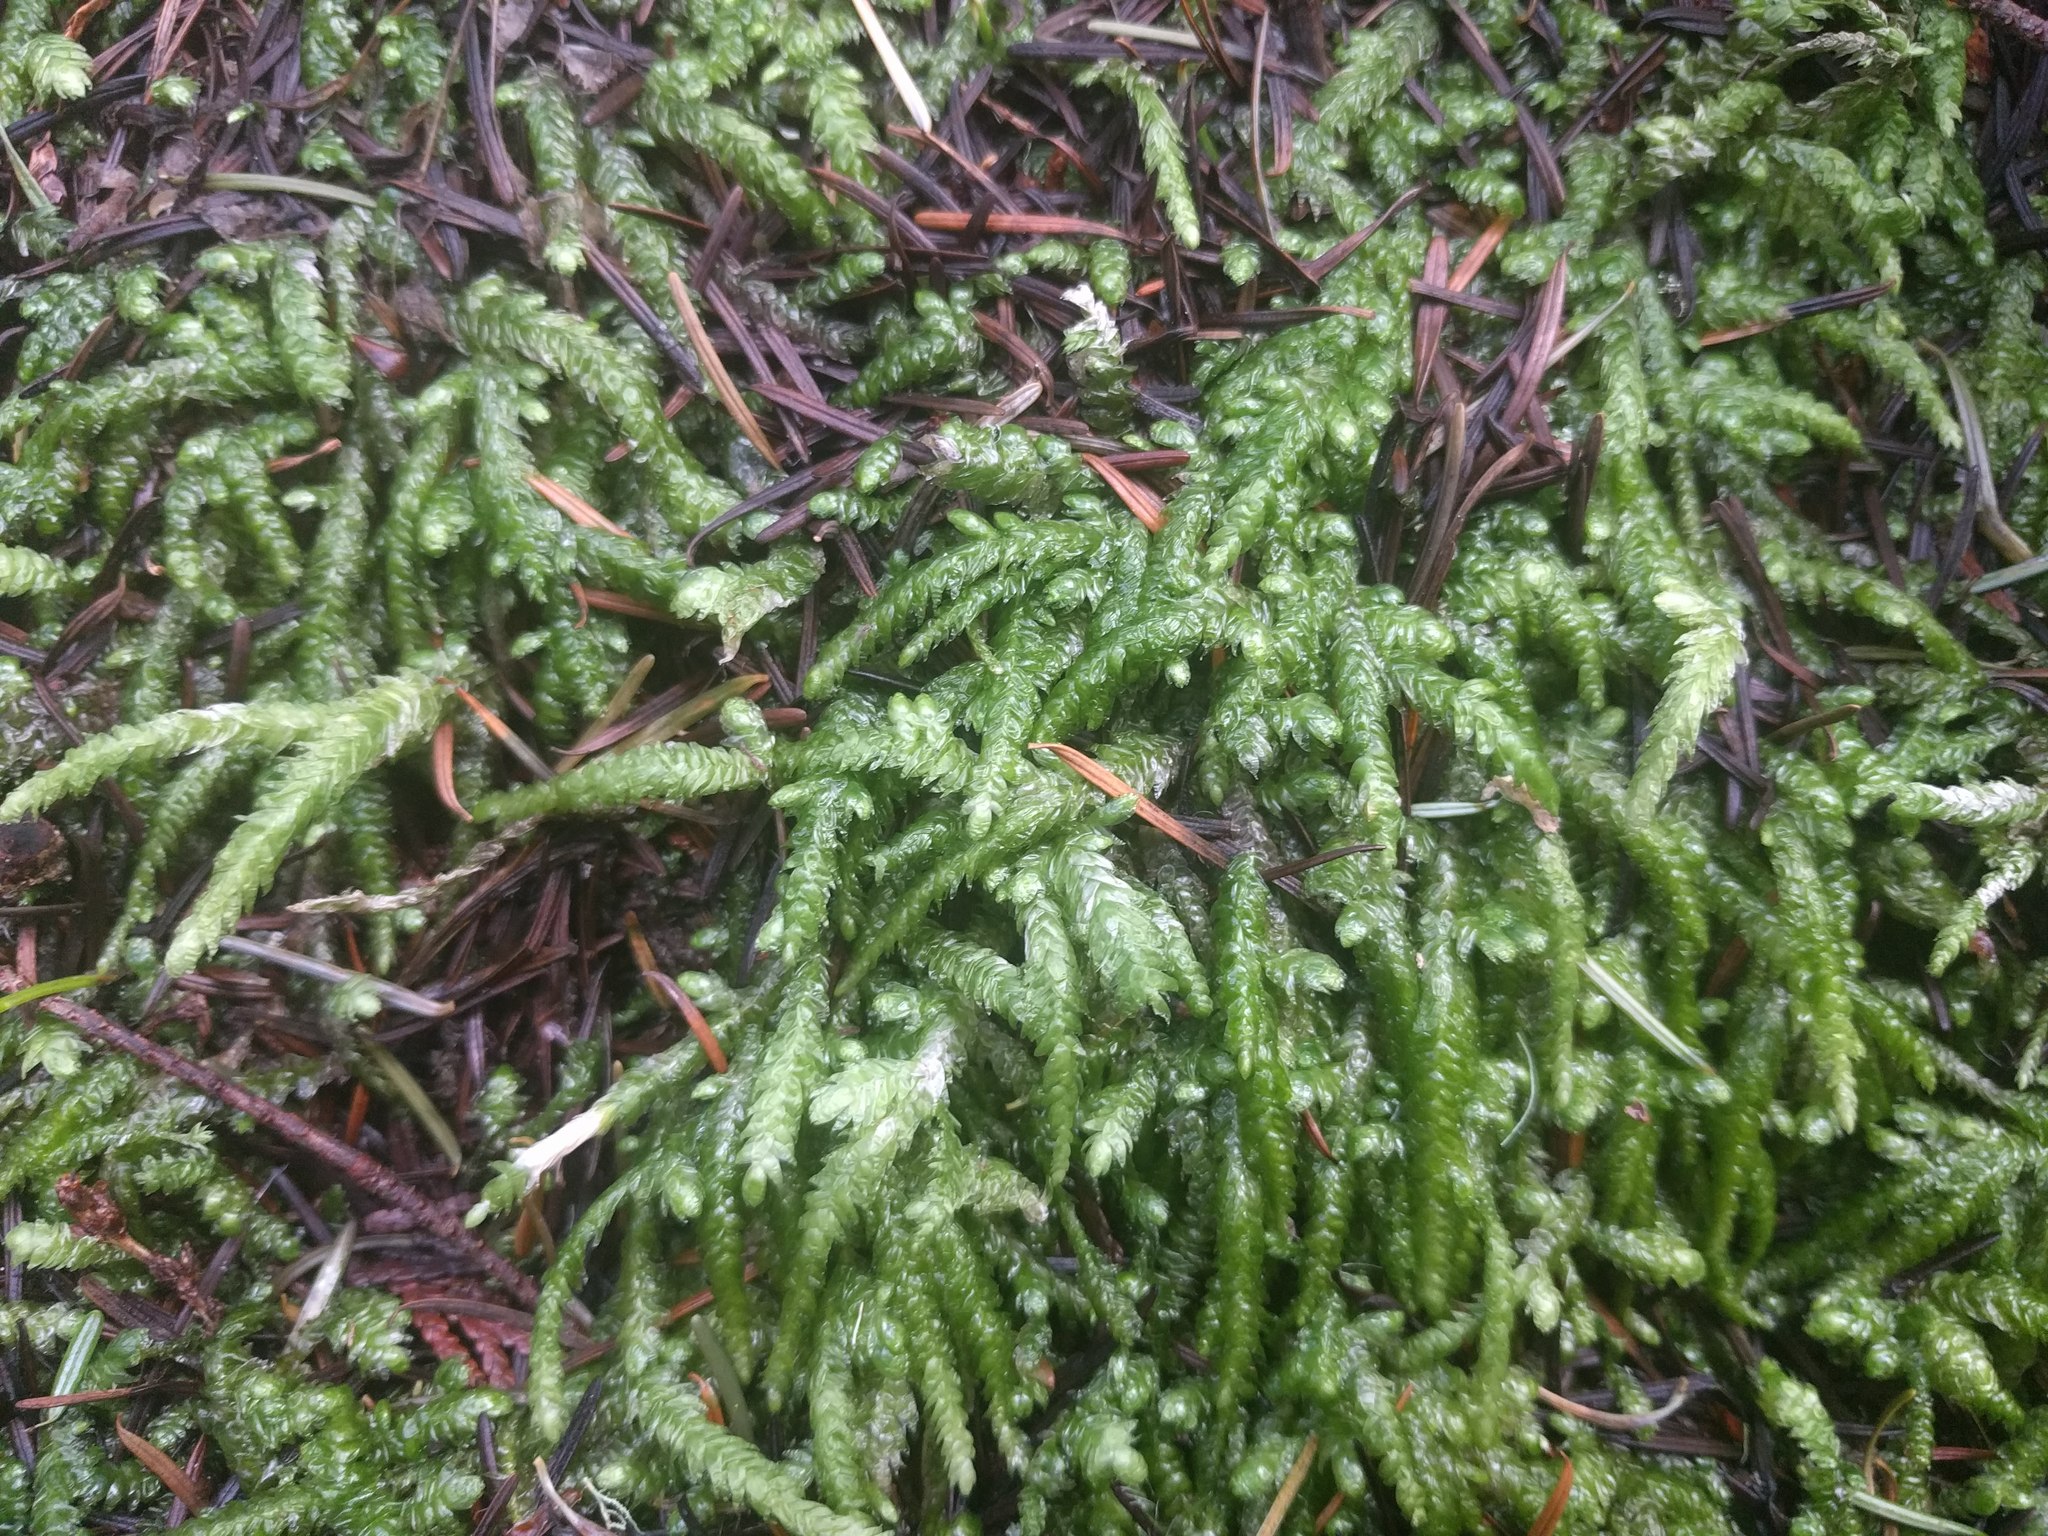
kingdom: Plantae
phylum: Bryophyta
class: Bryopsida
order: Hypnales
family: Plagiotheciaceae
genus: Plagiothecium
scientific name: Plagiothecium undulatum
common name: Waved silk-moss
